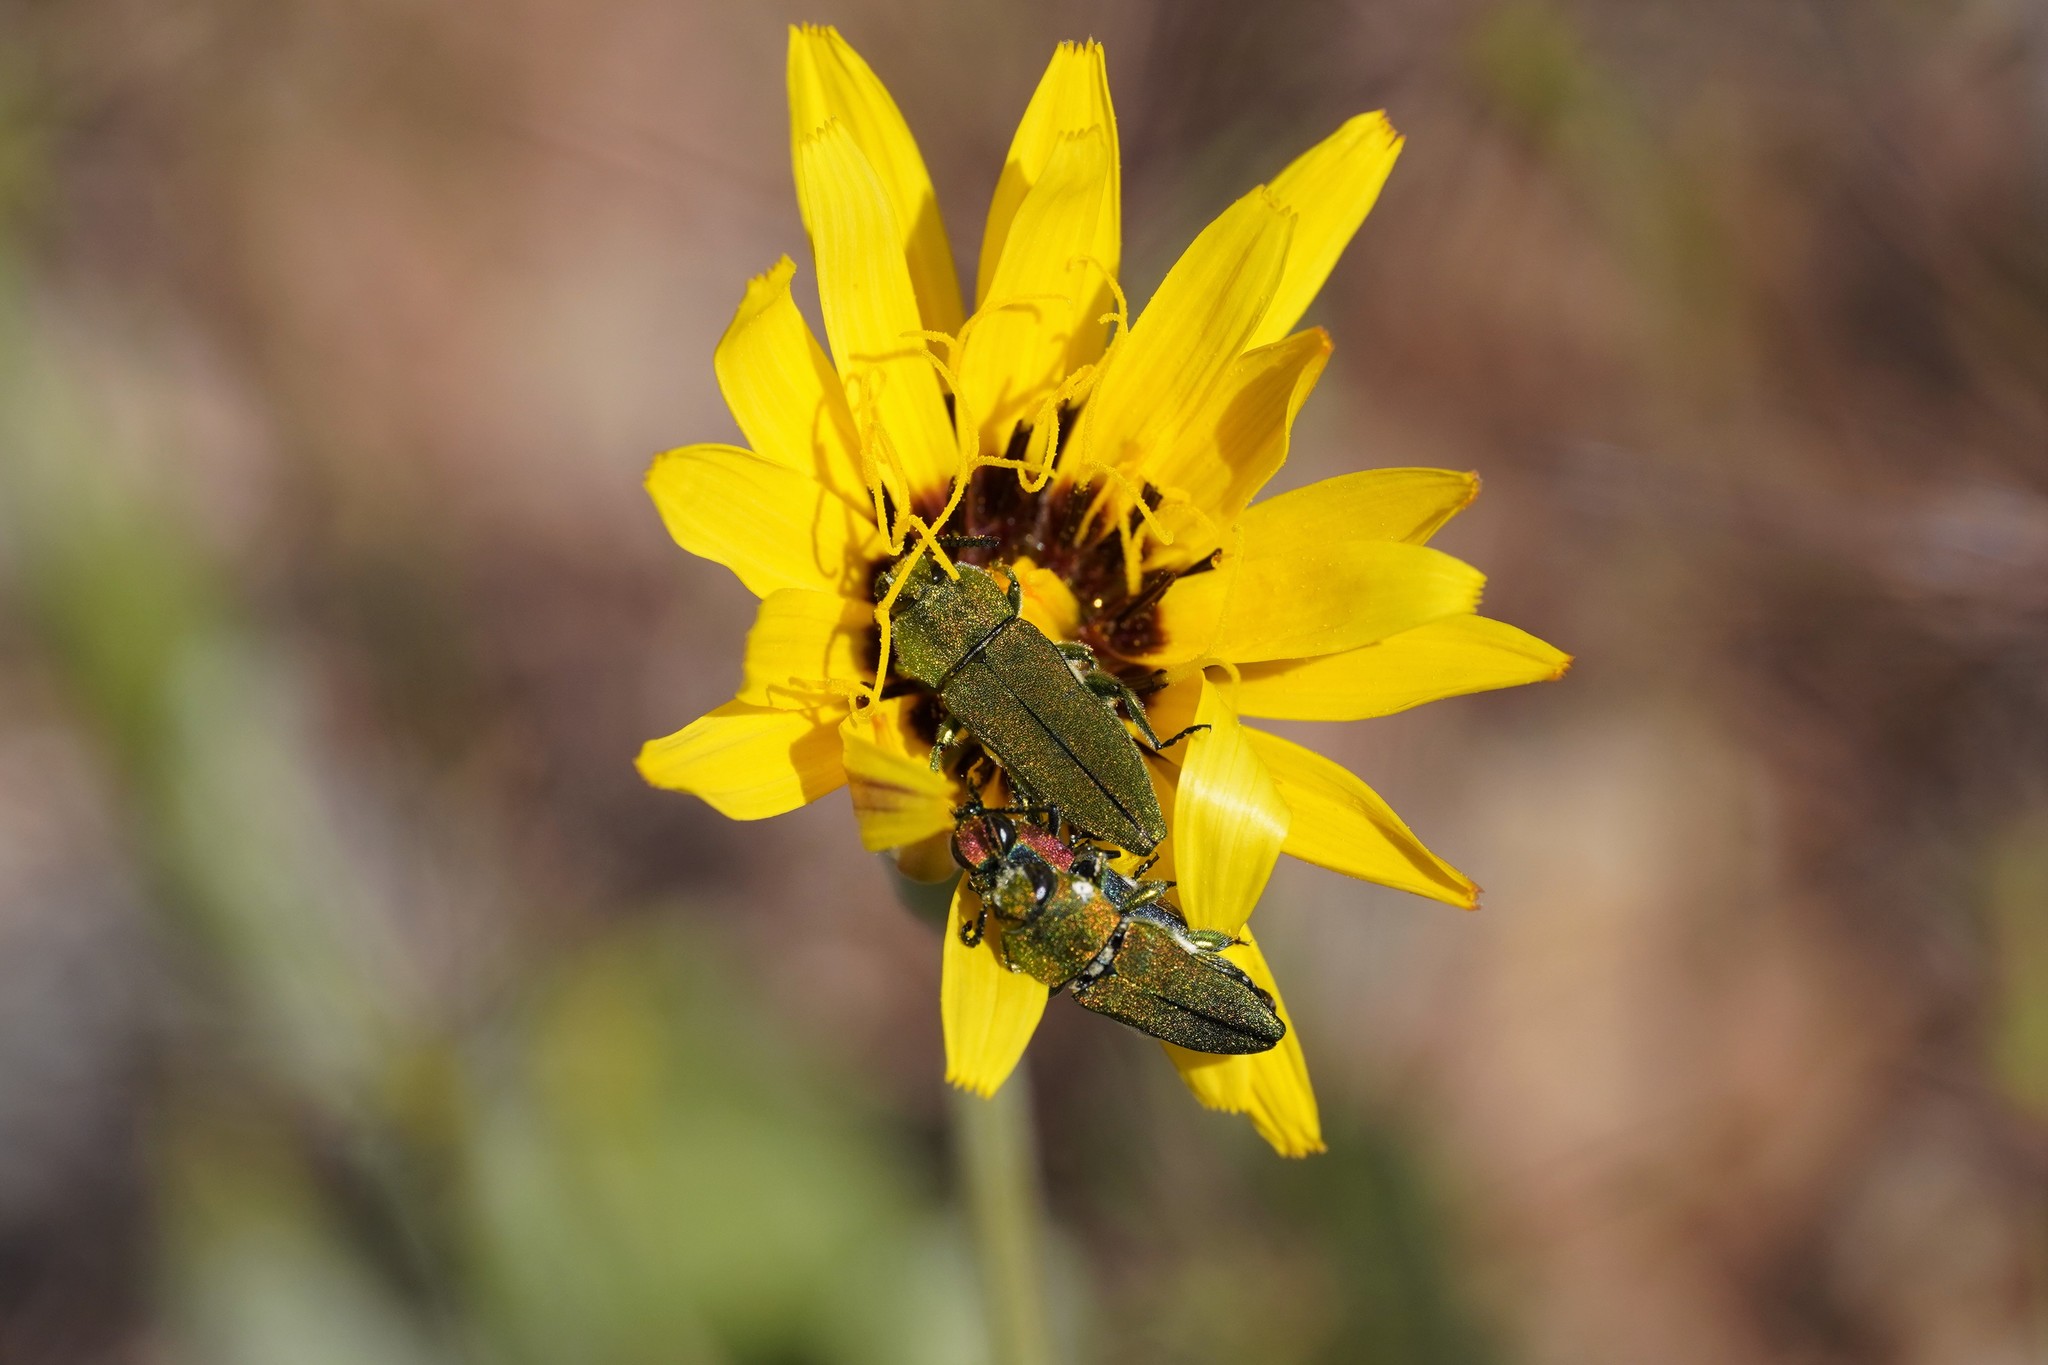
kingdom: Animalia
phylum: Arthropoda
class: Insecta
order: Coleoptera
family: Buprestidae
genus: Anthaxia
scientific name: Anthaxia hungarica
